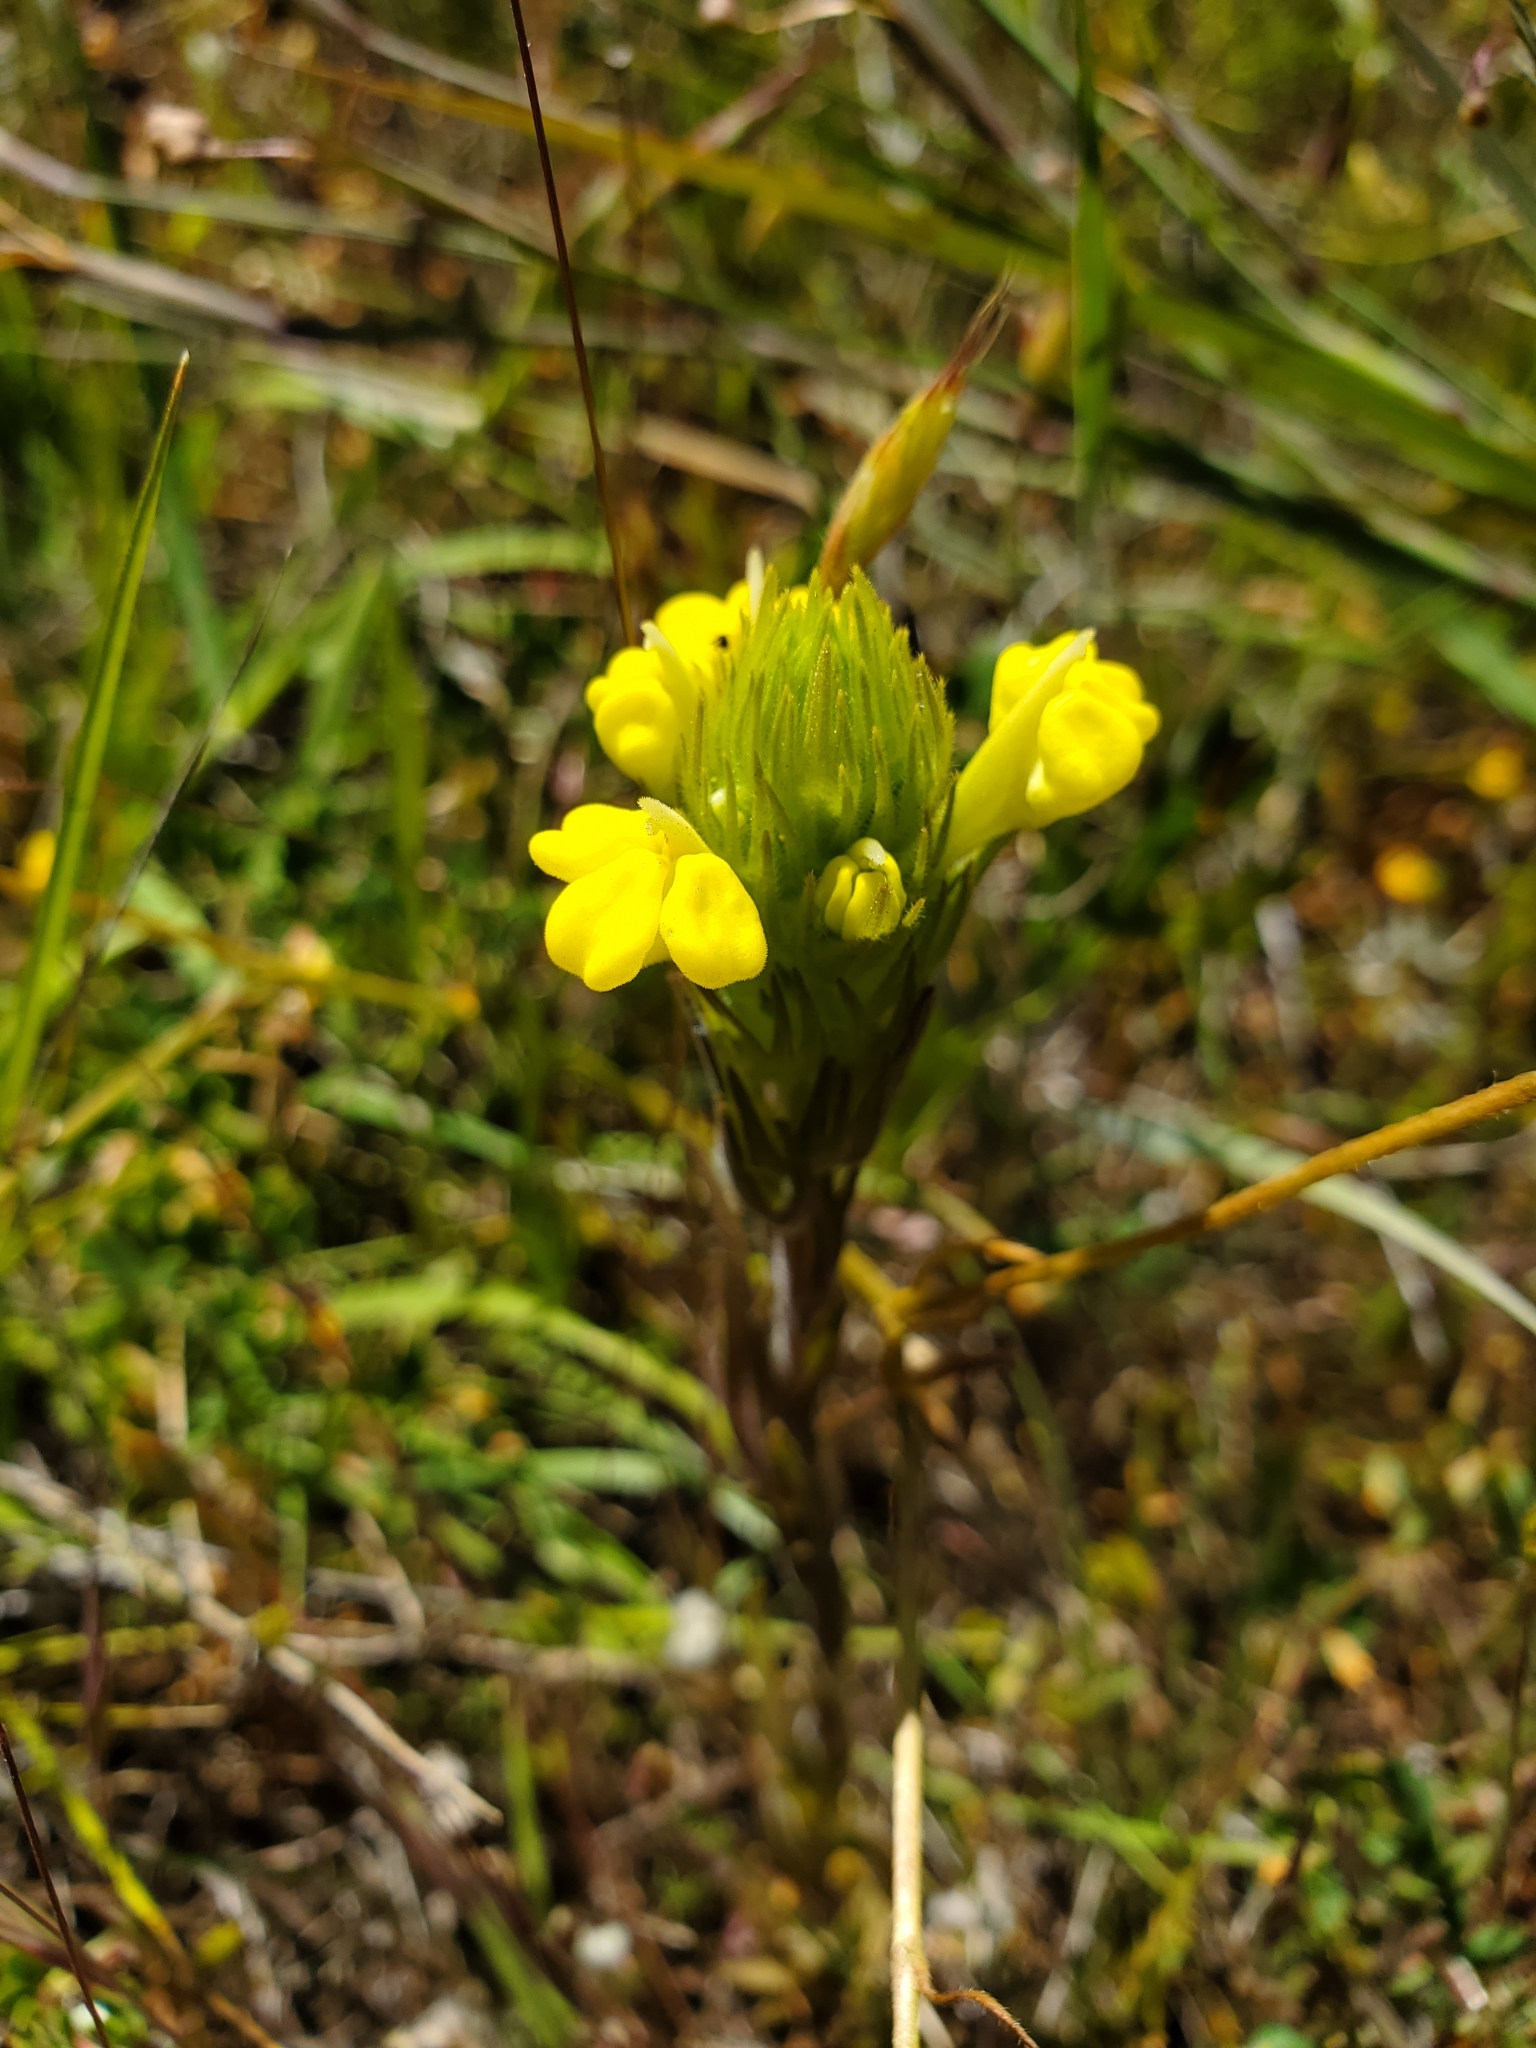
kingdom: Plantae
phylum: Tracheophyta
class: Magnoliopsida
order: Lamiales
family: Orobanchaceae
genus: Castilleja
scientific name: Castilleja rubicundula
